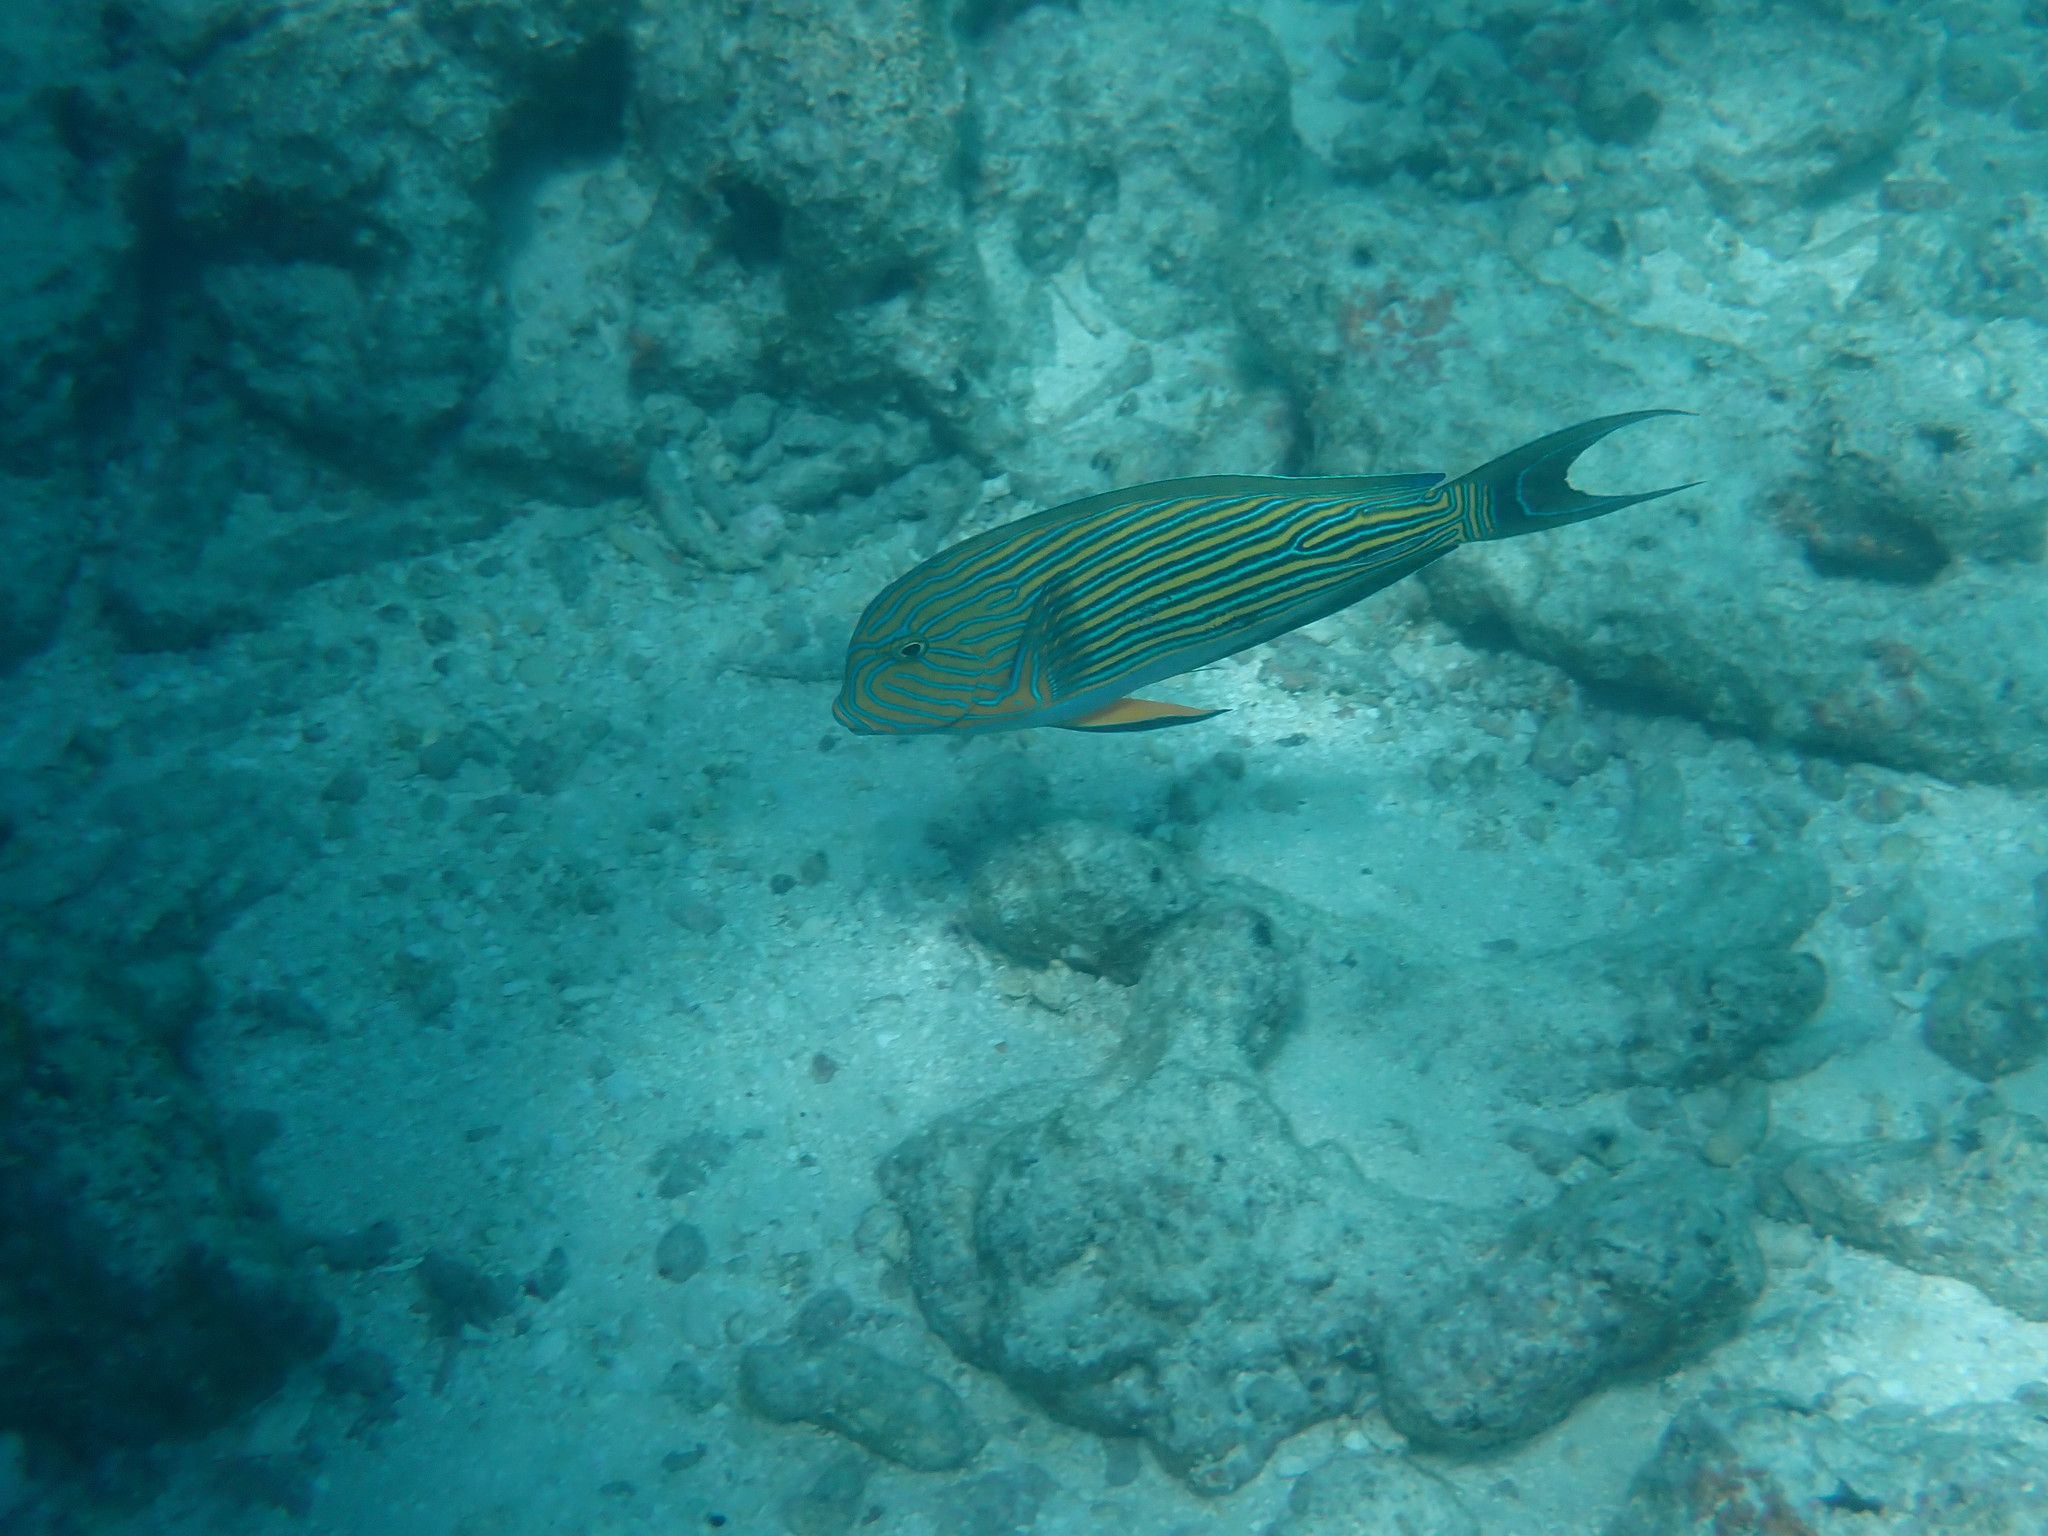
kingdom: Animalia
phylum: Chordata
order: Perciformes
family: Acanthuridae
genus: Acanthurus
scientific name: Acanthurus lineatus
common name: Striped surgeonfish
